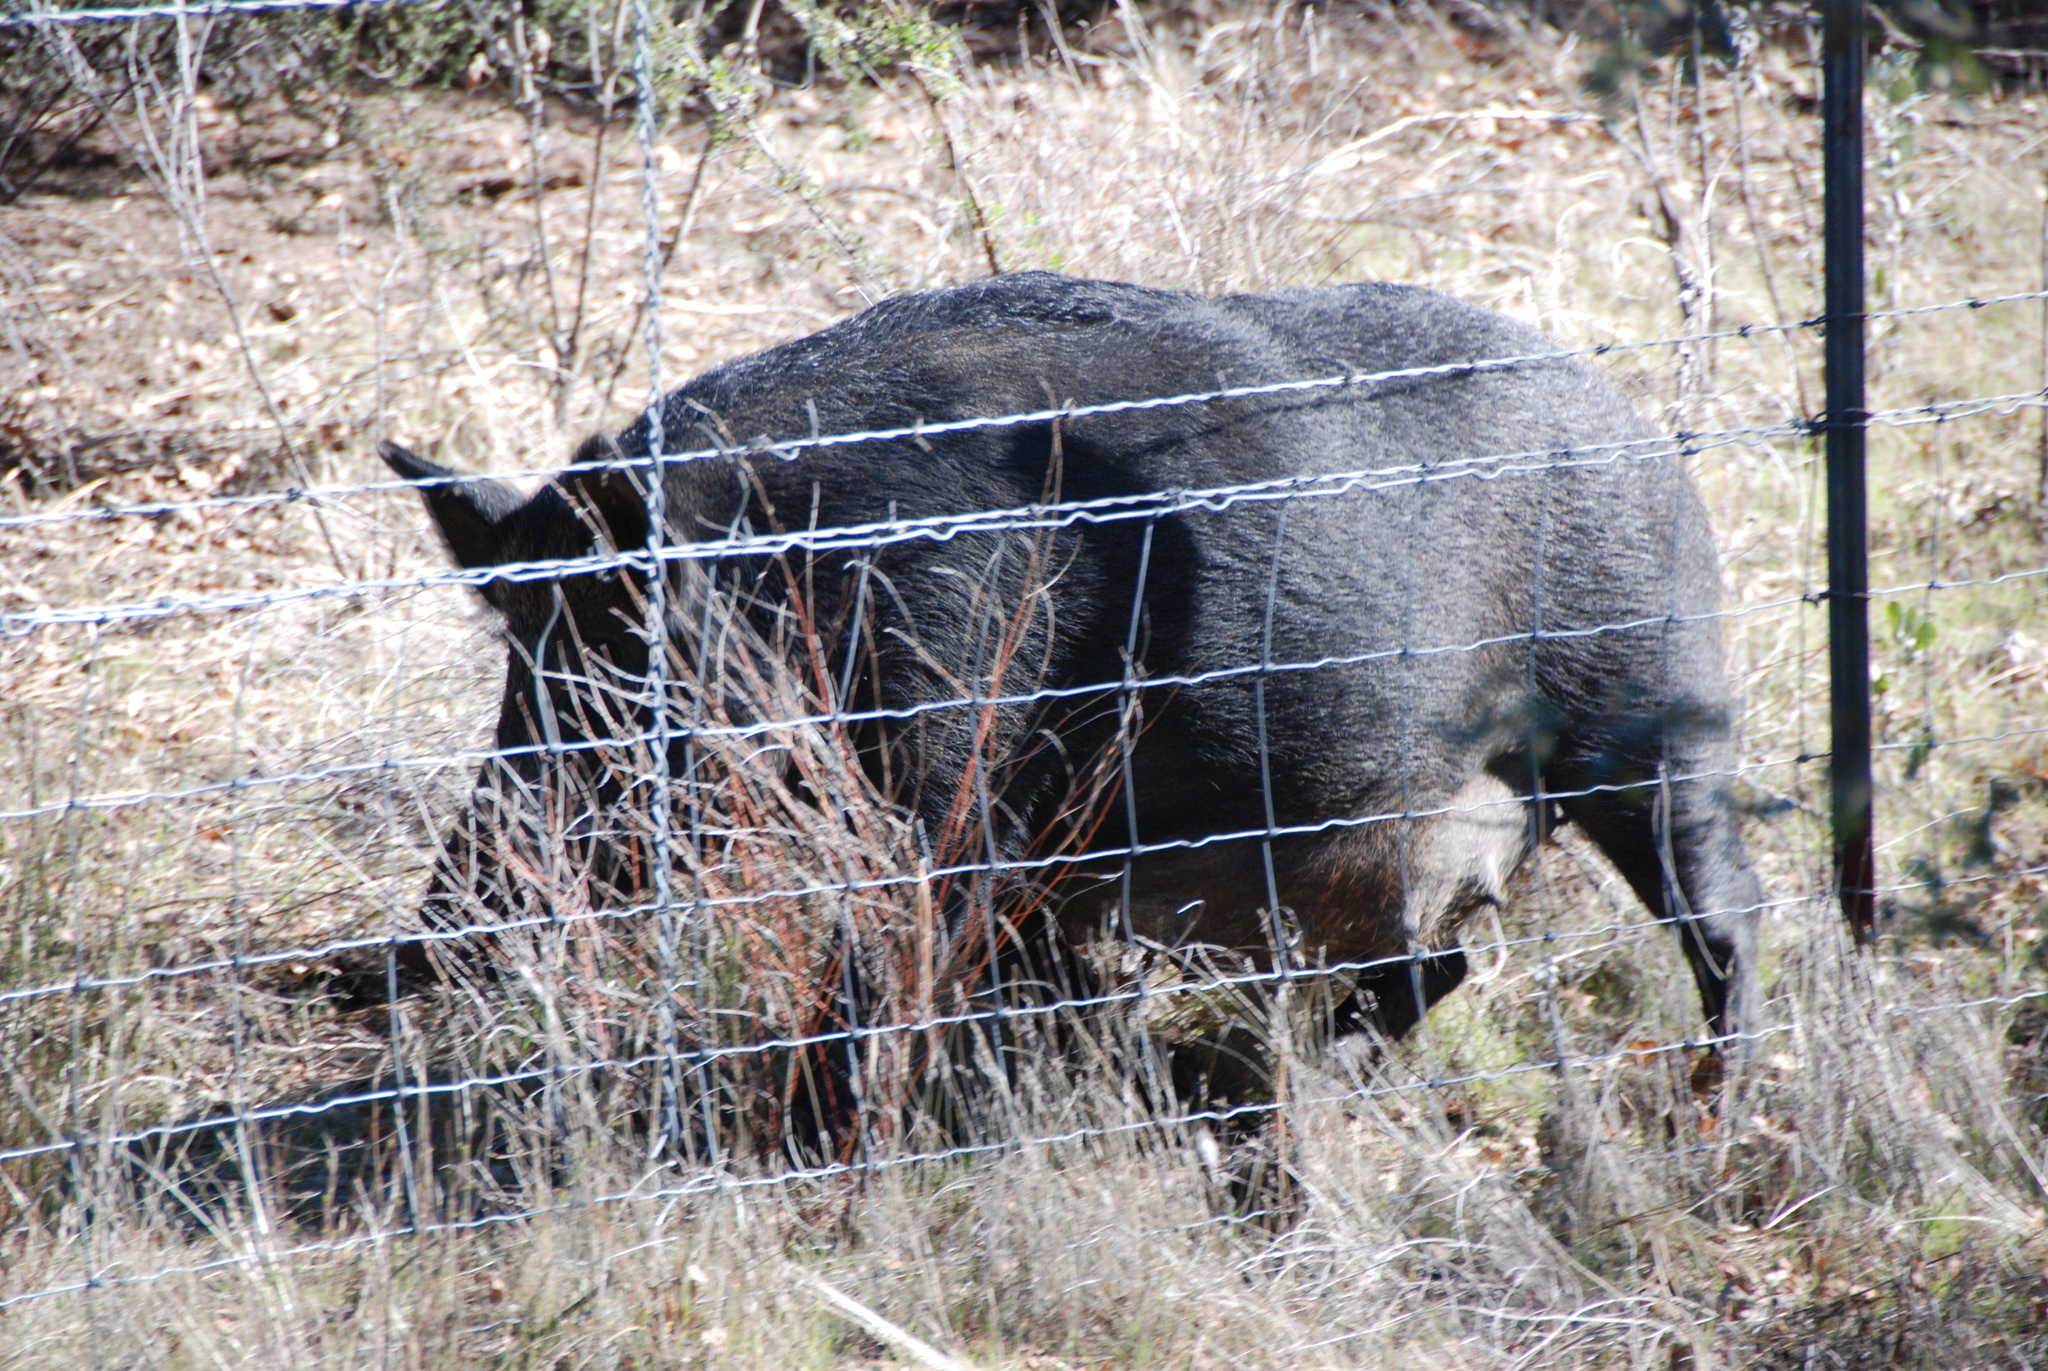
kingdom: Animalia
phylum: Chordata
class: Mammalia
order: Artiodactyla
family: Suidae
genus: Sus
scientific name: Sus scrofa
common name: Wild boar
